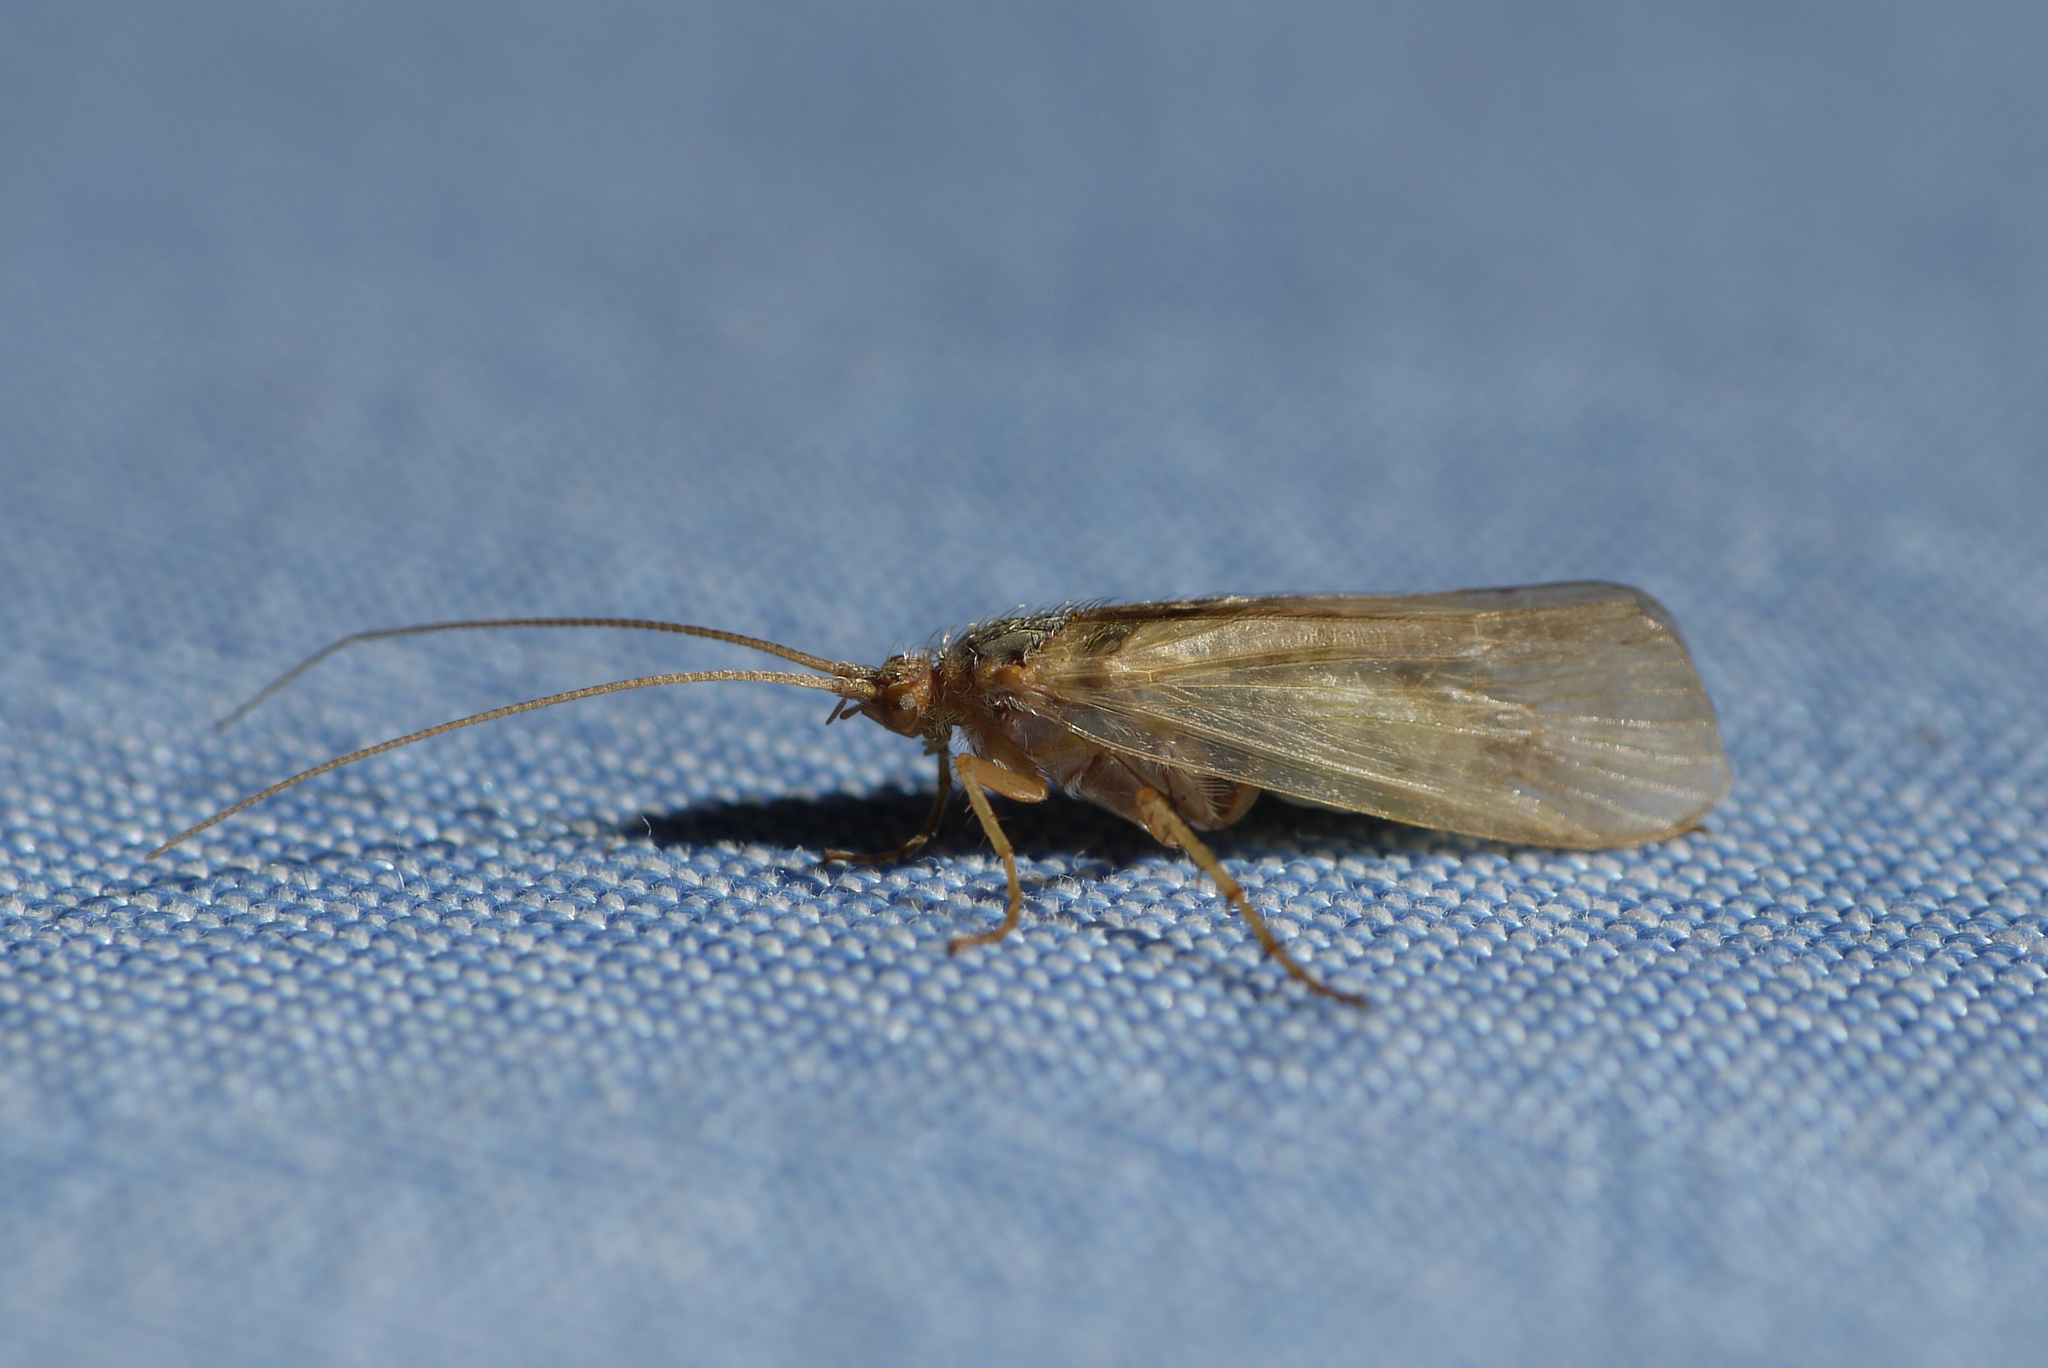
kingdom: Animalia
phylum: Arthropoda
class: Insecta
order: Trichoptera
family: Limnephilidae
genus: Limnephilus
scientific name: Limnephilus flavicornis
